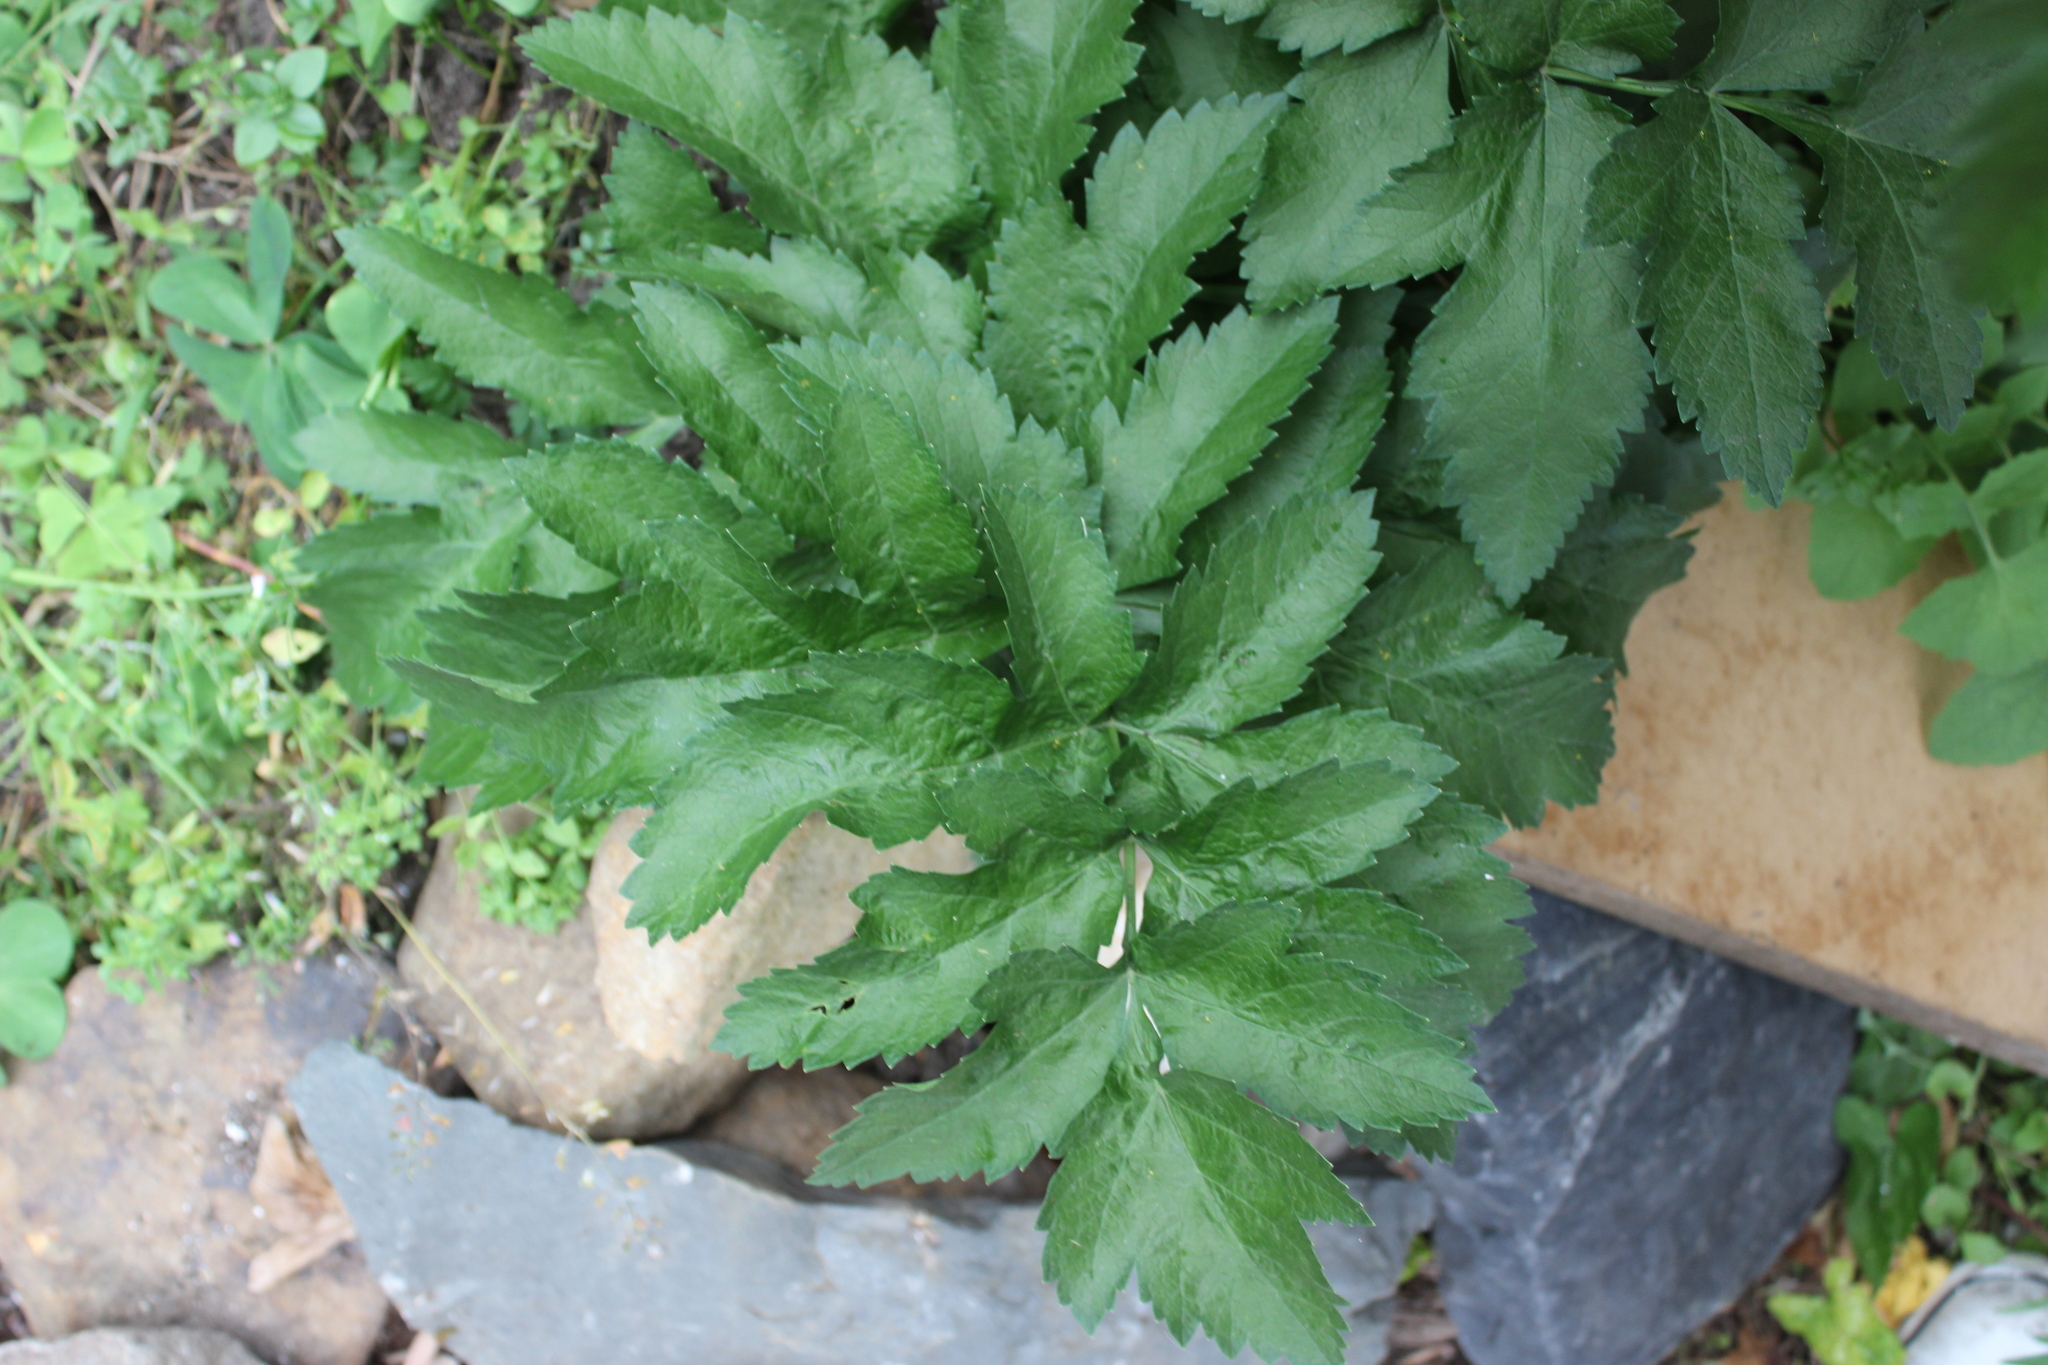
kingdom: Plantae
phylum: Tracheophyta
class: Magnoliopsida
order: Apiales
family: Apiaceae
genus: Pastinaca
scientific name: Pastinaca sativa
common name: Wild parsnip
